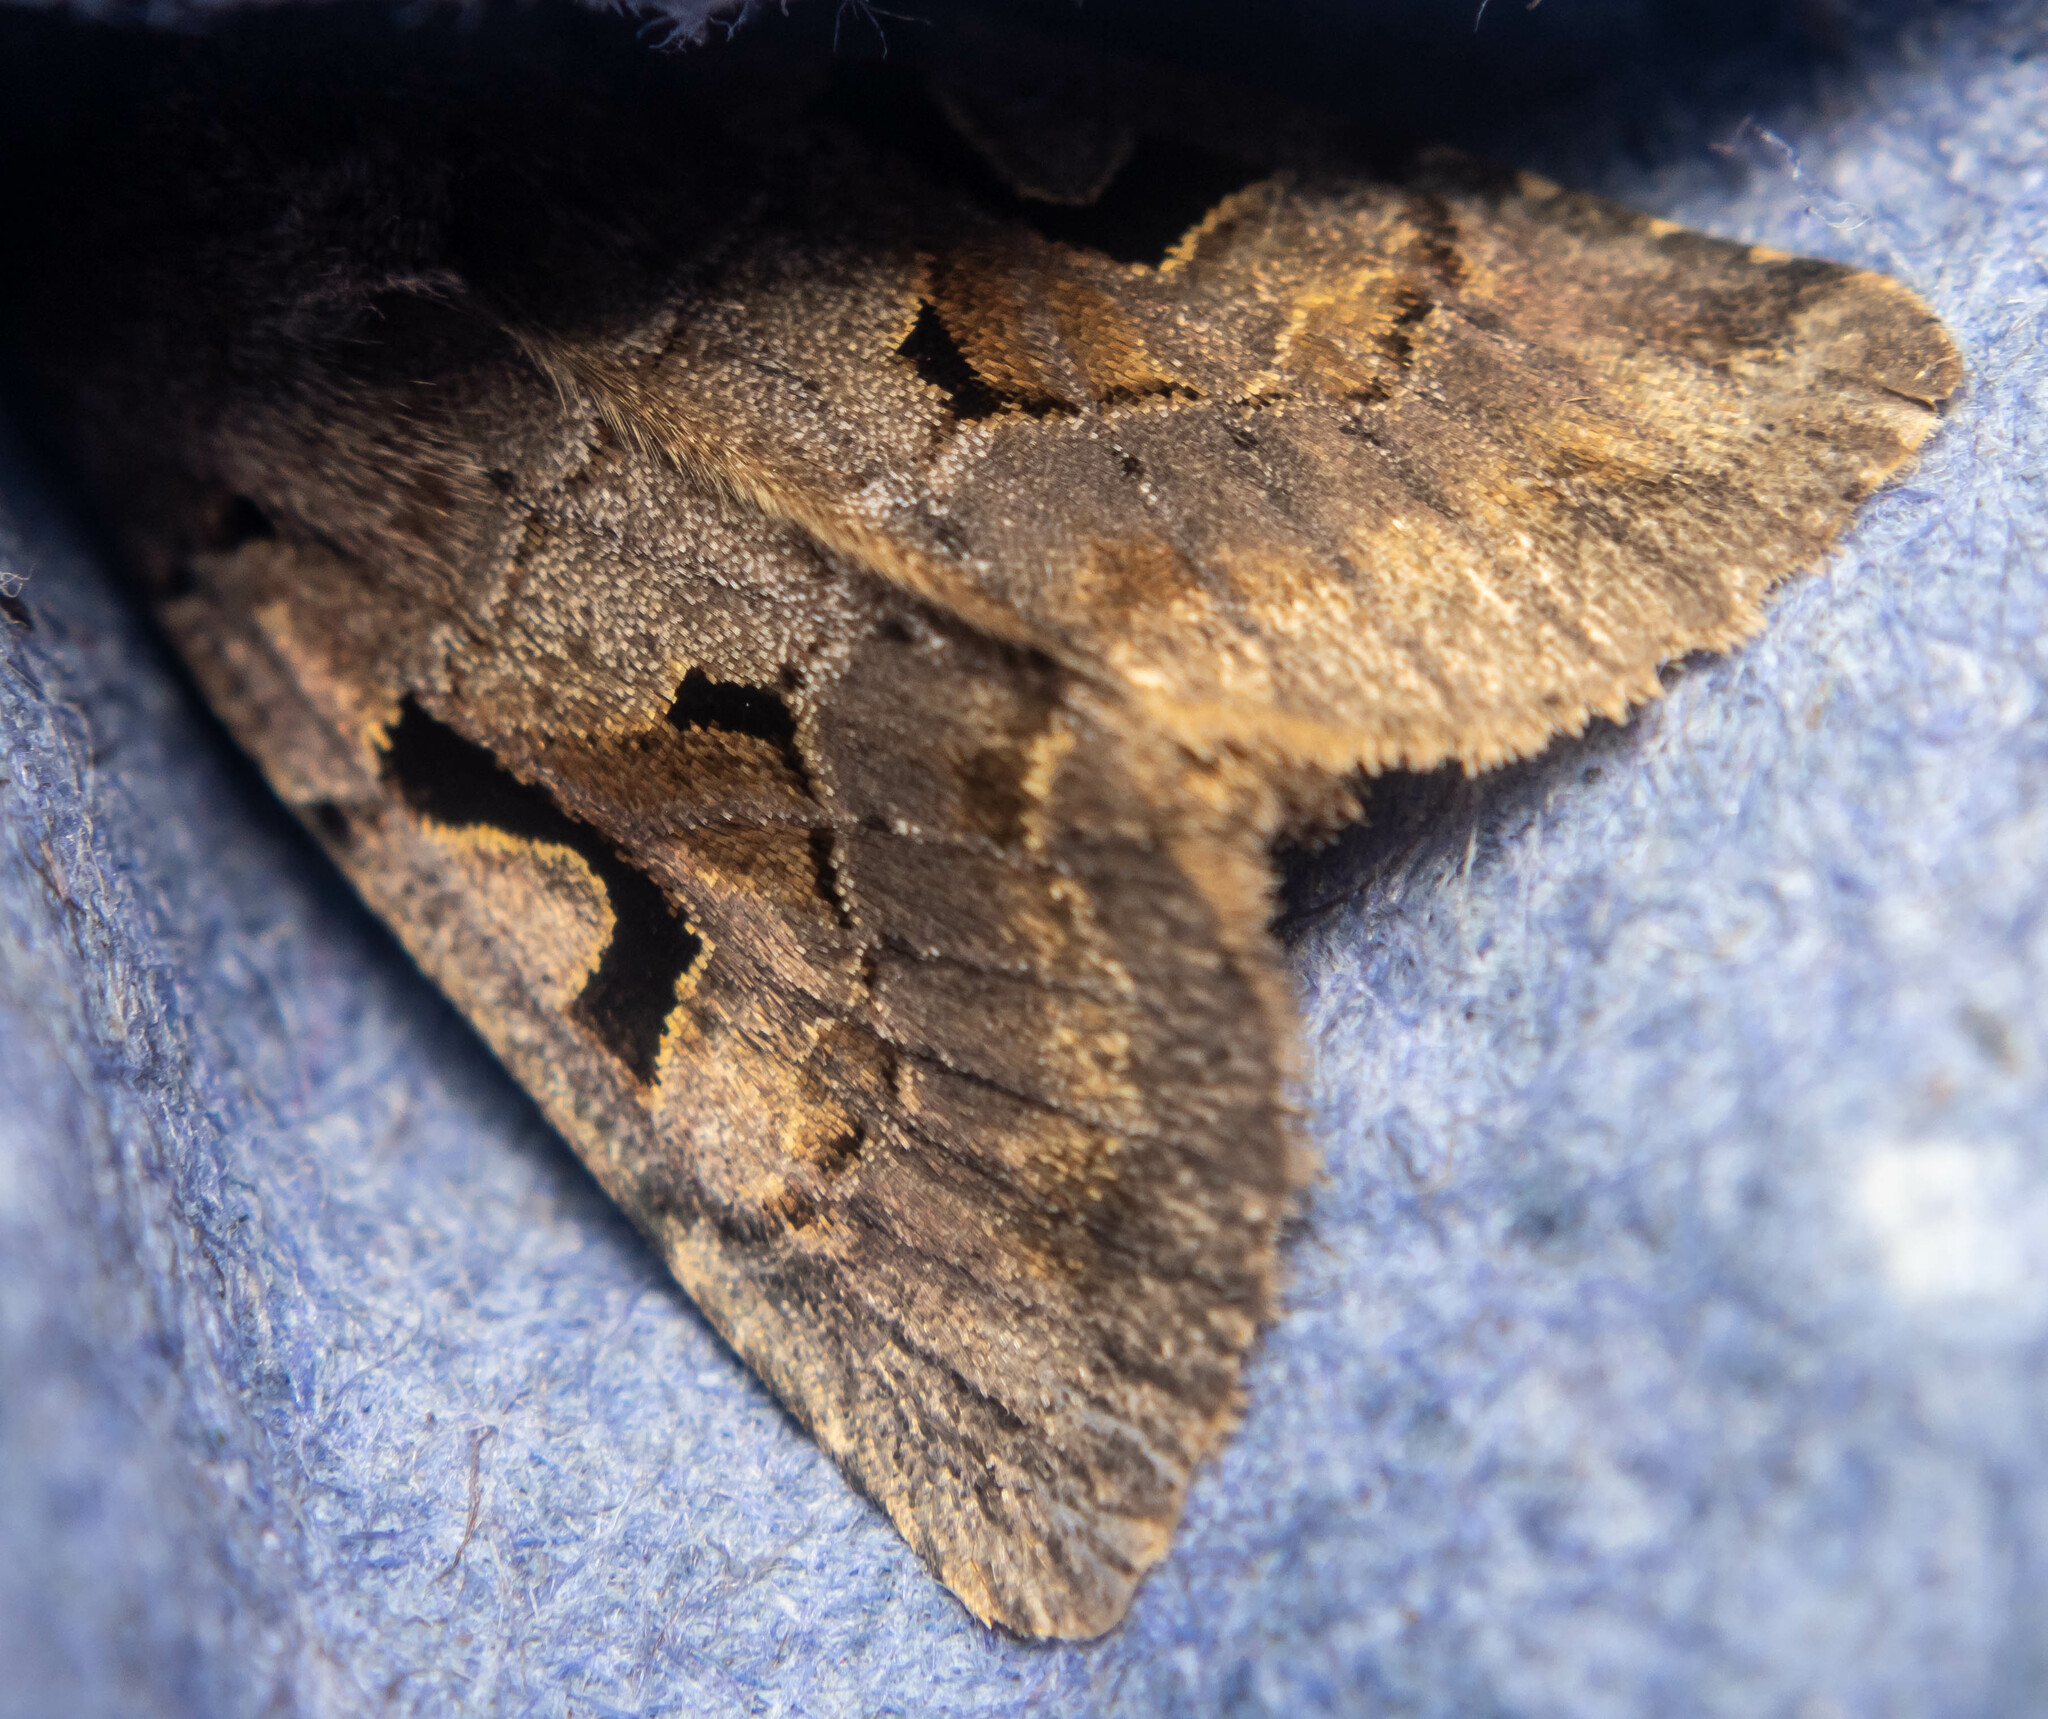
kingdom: Animalia
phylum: Arthropoda
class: Insecta
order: Lepidoptera
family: Noctuidae
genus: Orthosia
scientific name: Orthosia gothica
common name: Hebrew character
